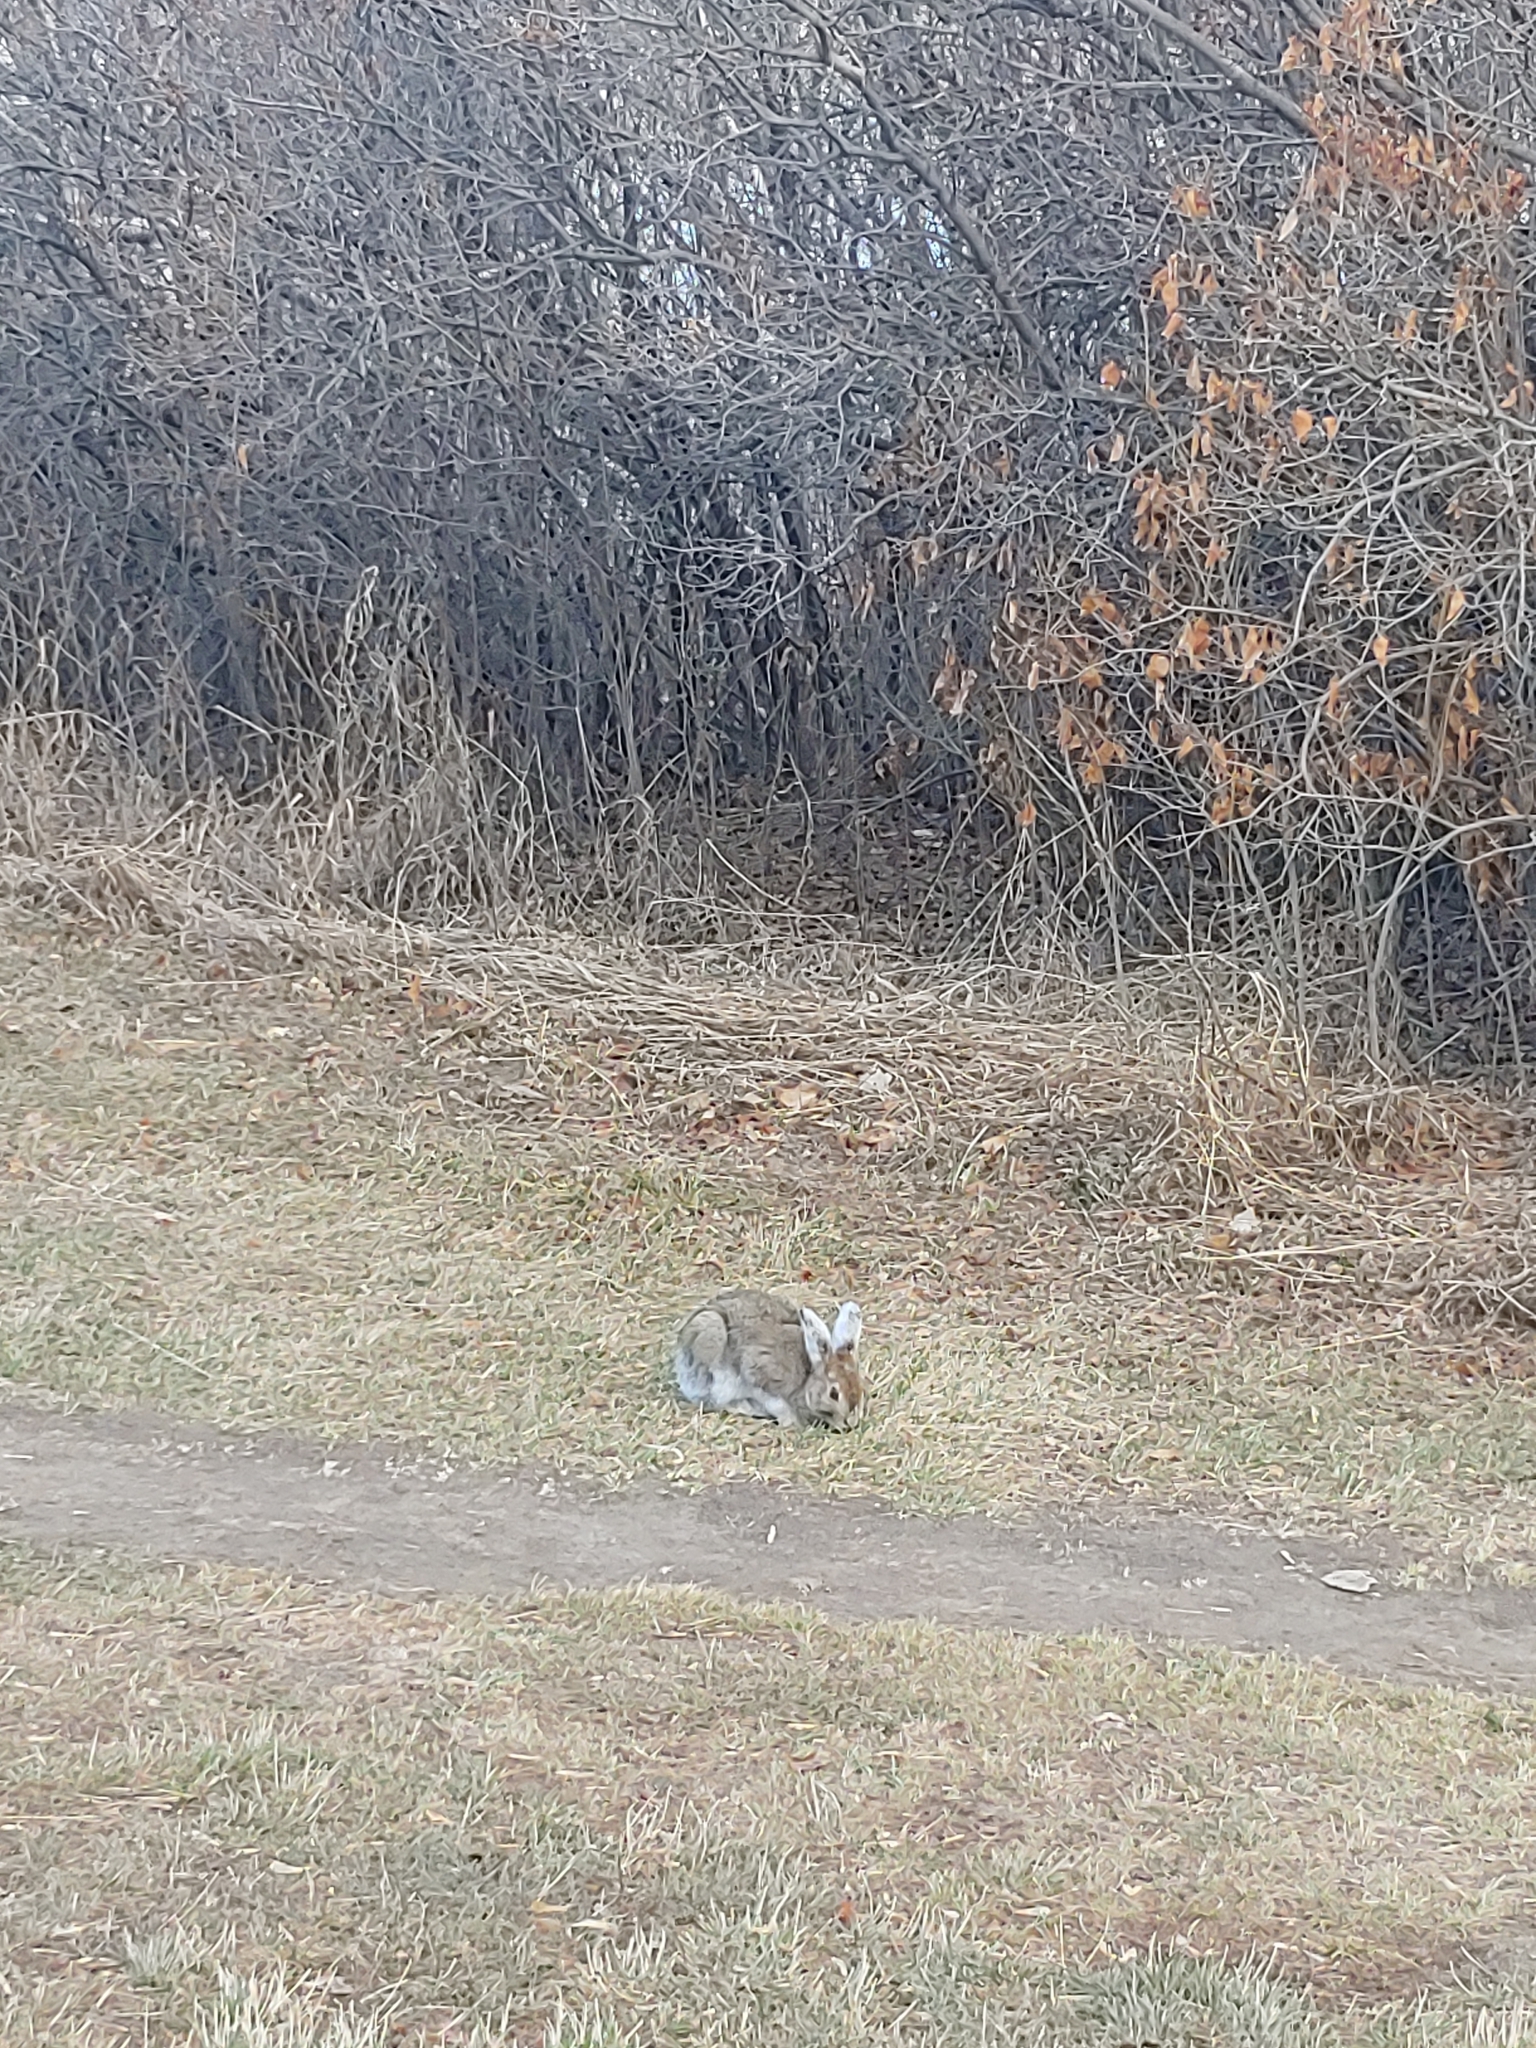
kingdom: Animalia
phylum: Chordata
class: Mammalia
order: Lagomorpha
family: Leporidae
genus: Lepus
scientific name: Lepus americanus
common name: Snowshoe hare
